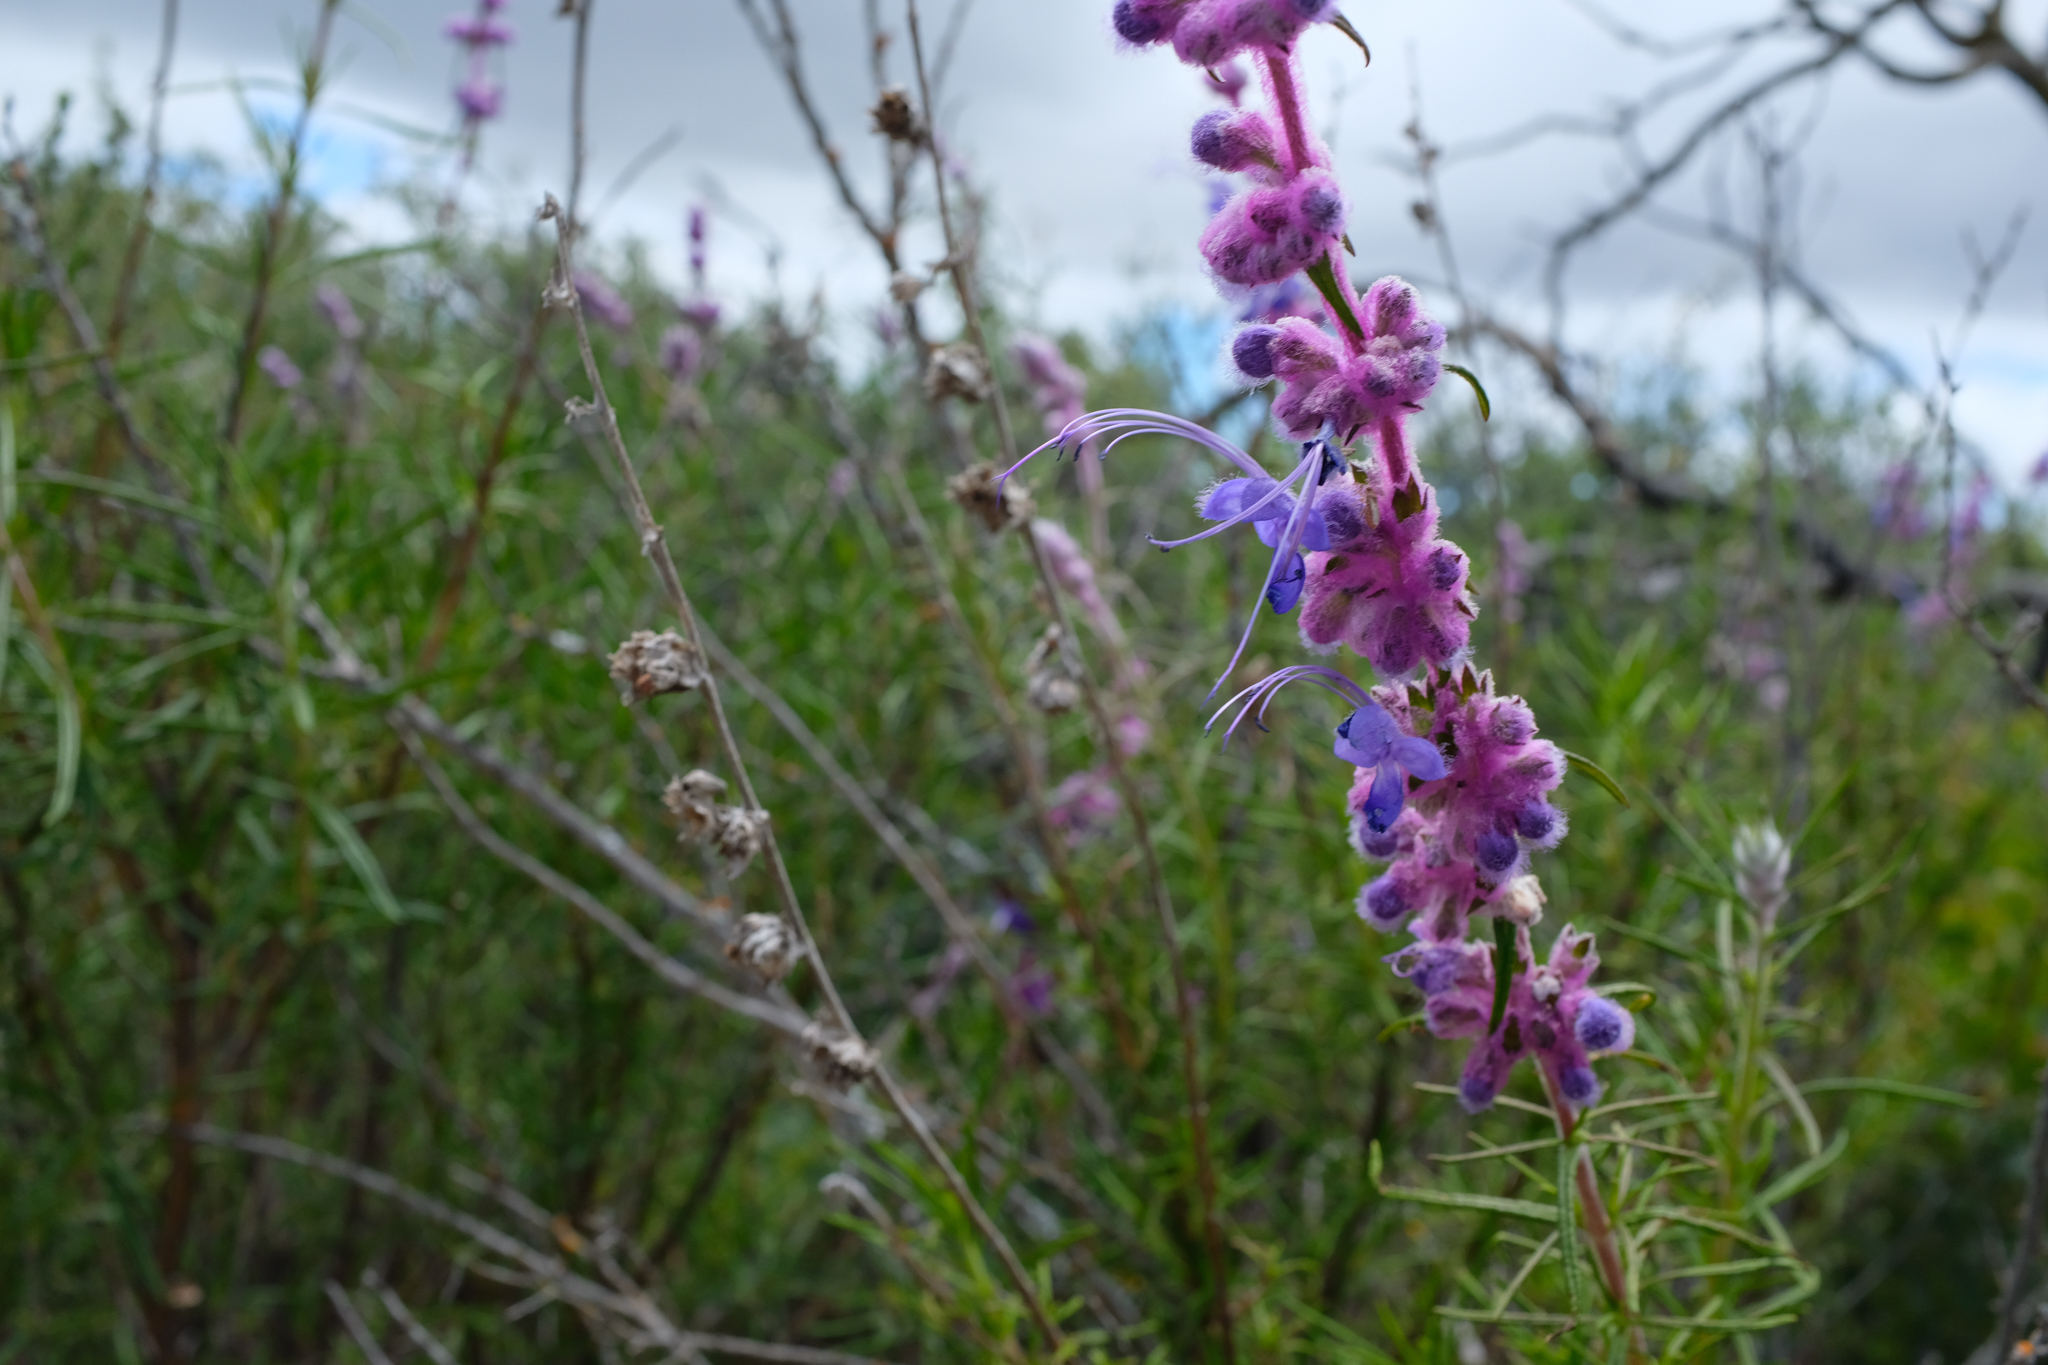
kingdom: Plantae
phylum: Tracheophyta
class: Magnoliopsida
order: Lamiales
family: Lamiaceae
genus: Trichostema
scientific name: Trichostema lanatum
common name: Woolly bluecurls
